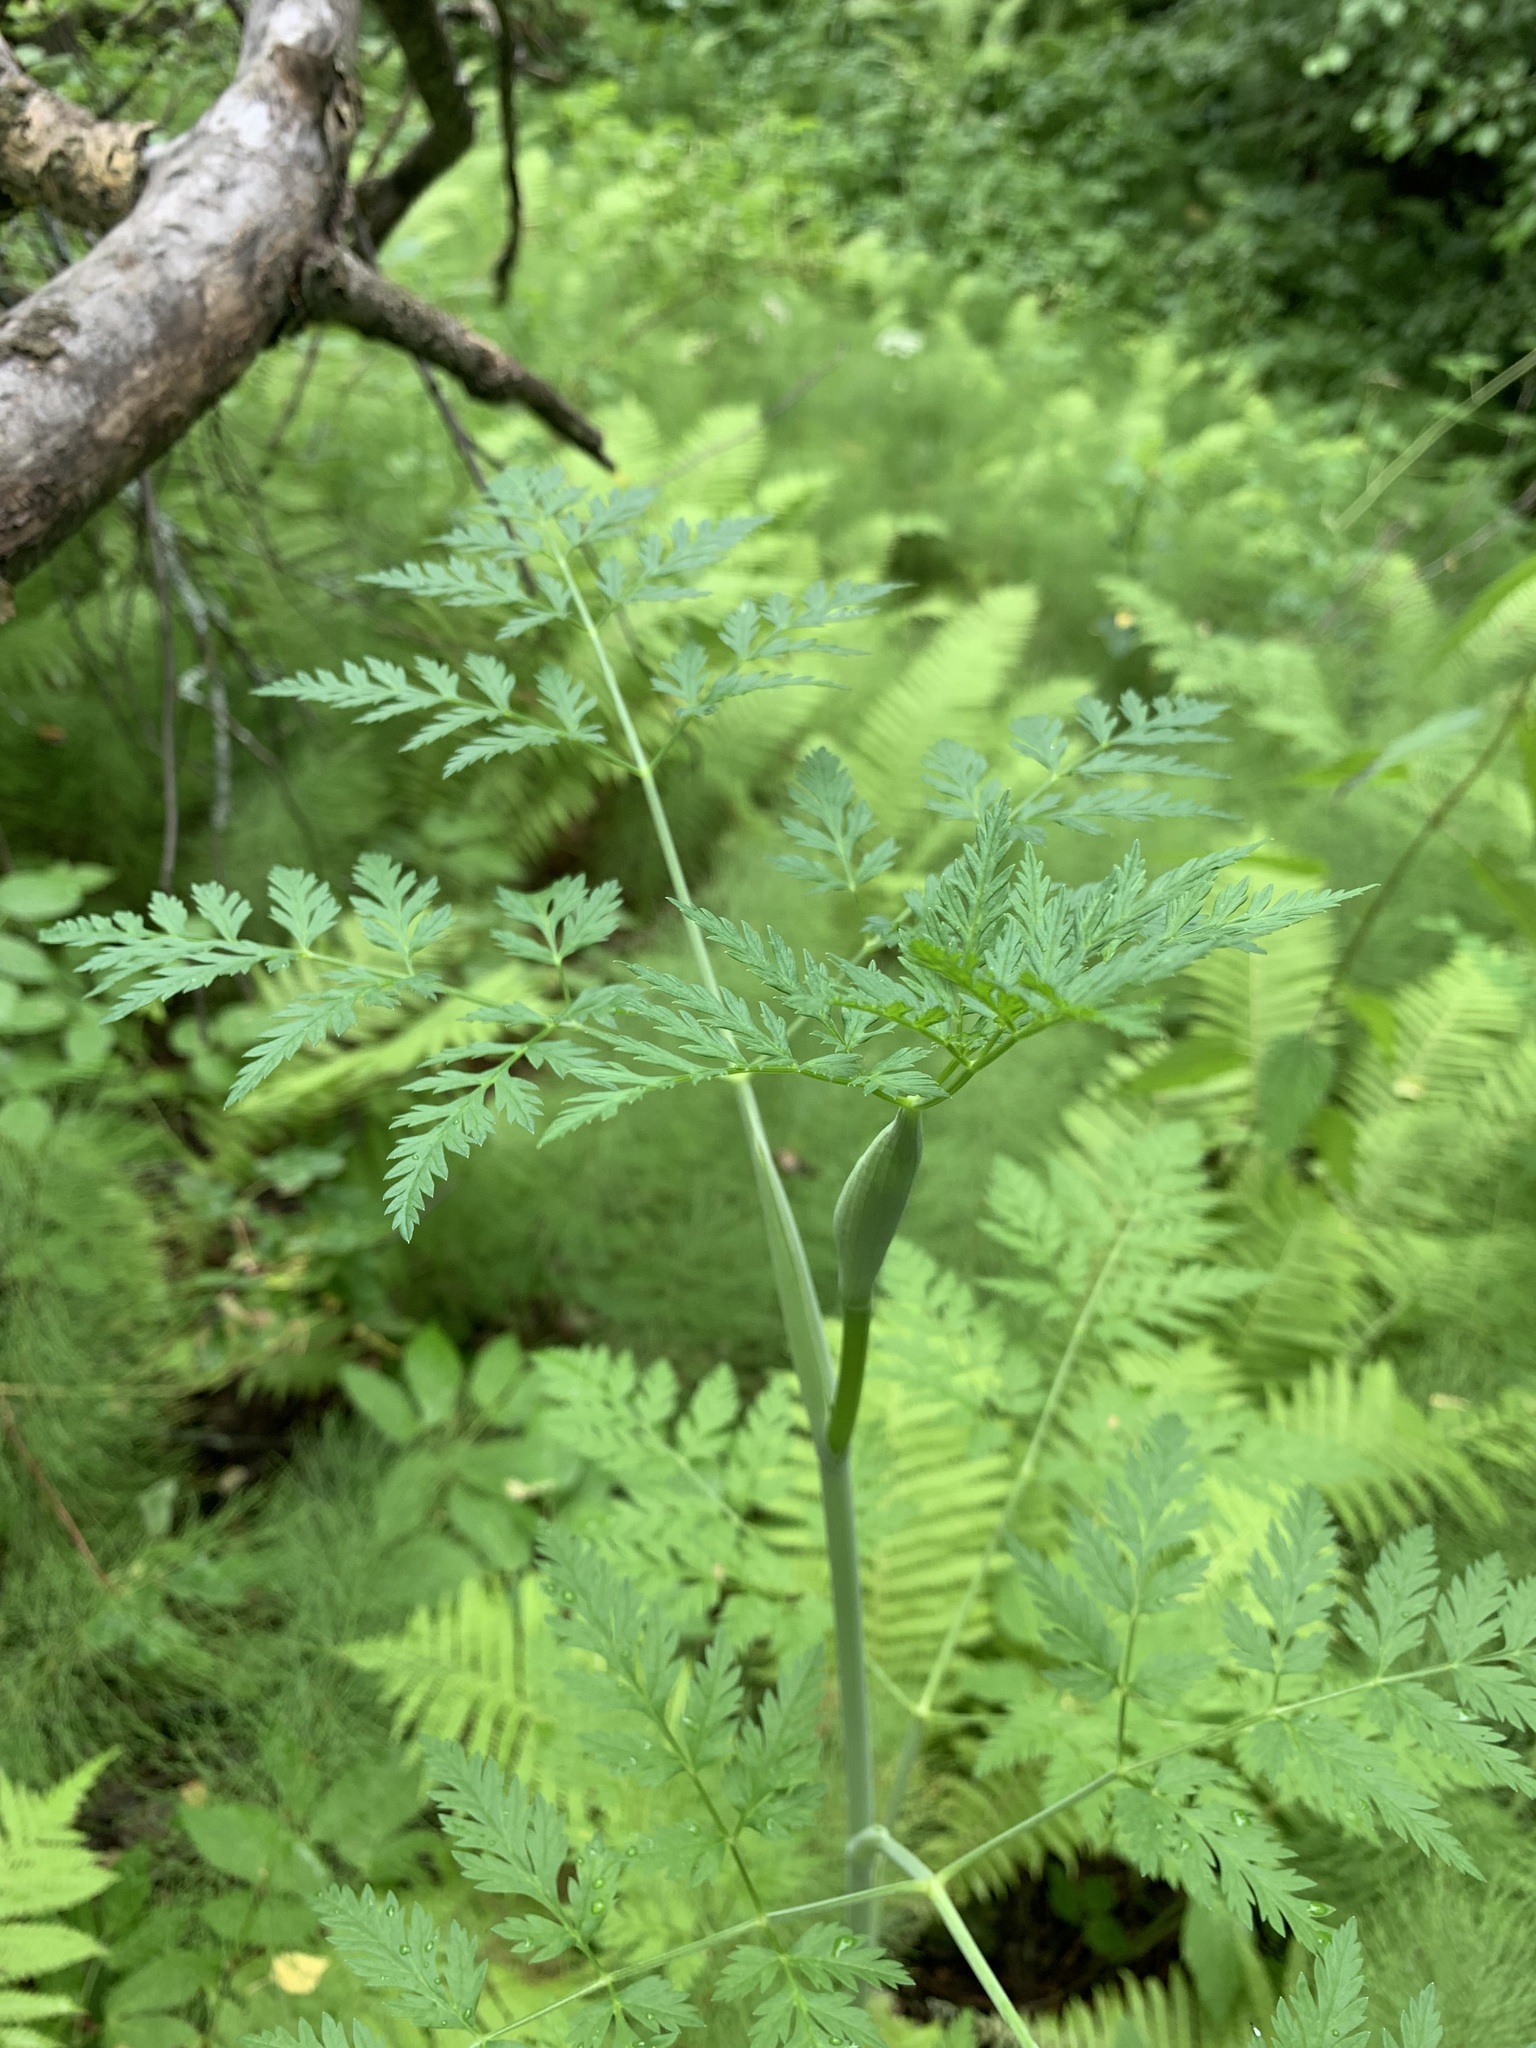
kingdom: Plantae
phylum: Tracheophyta
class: Magnoliopsida
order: Apiales
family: Apiaceae
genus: Conioselinum
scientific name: Conioselinum tataricum
